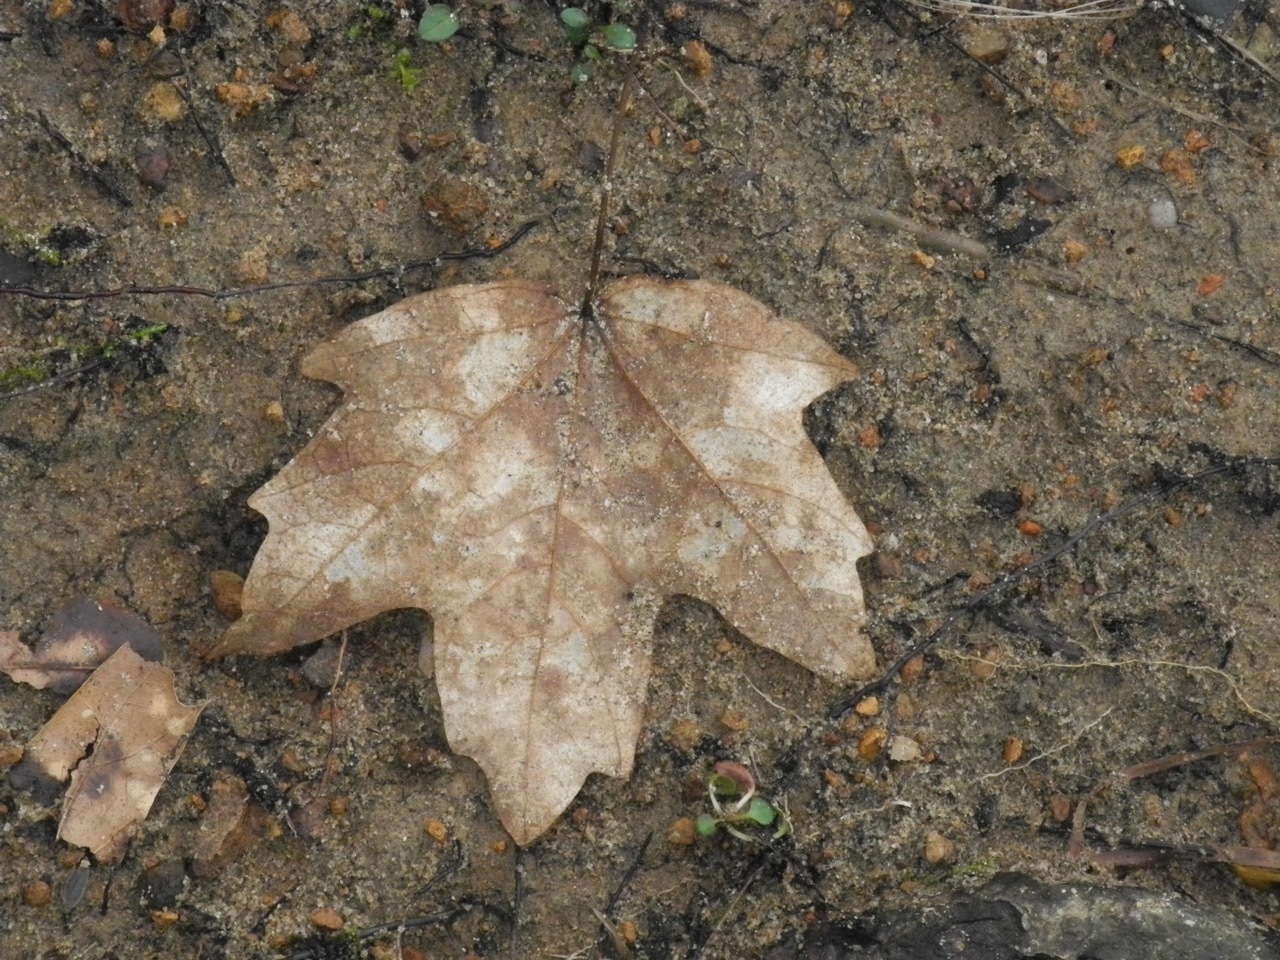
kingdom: Plantae
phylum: Tracheophyta
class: Magnoliopsida
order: Sapindales
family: Sapindaceae
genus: Acer
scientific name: Acer floridanum
